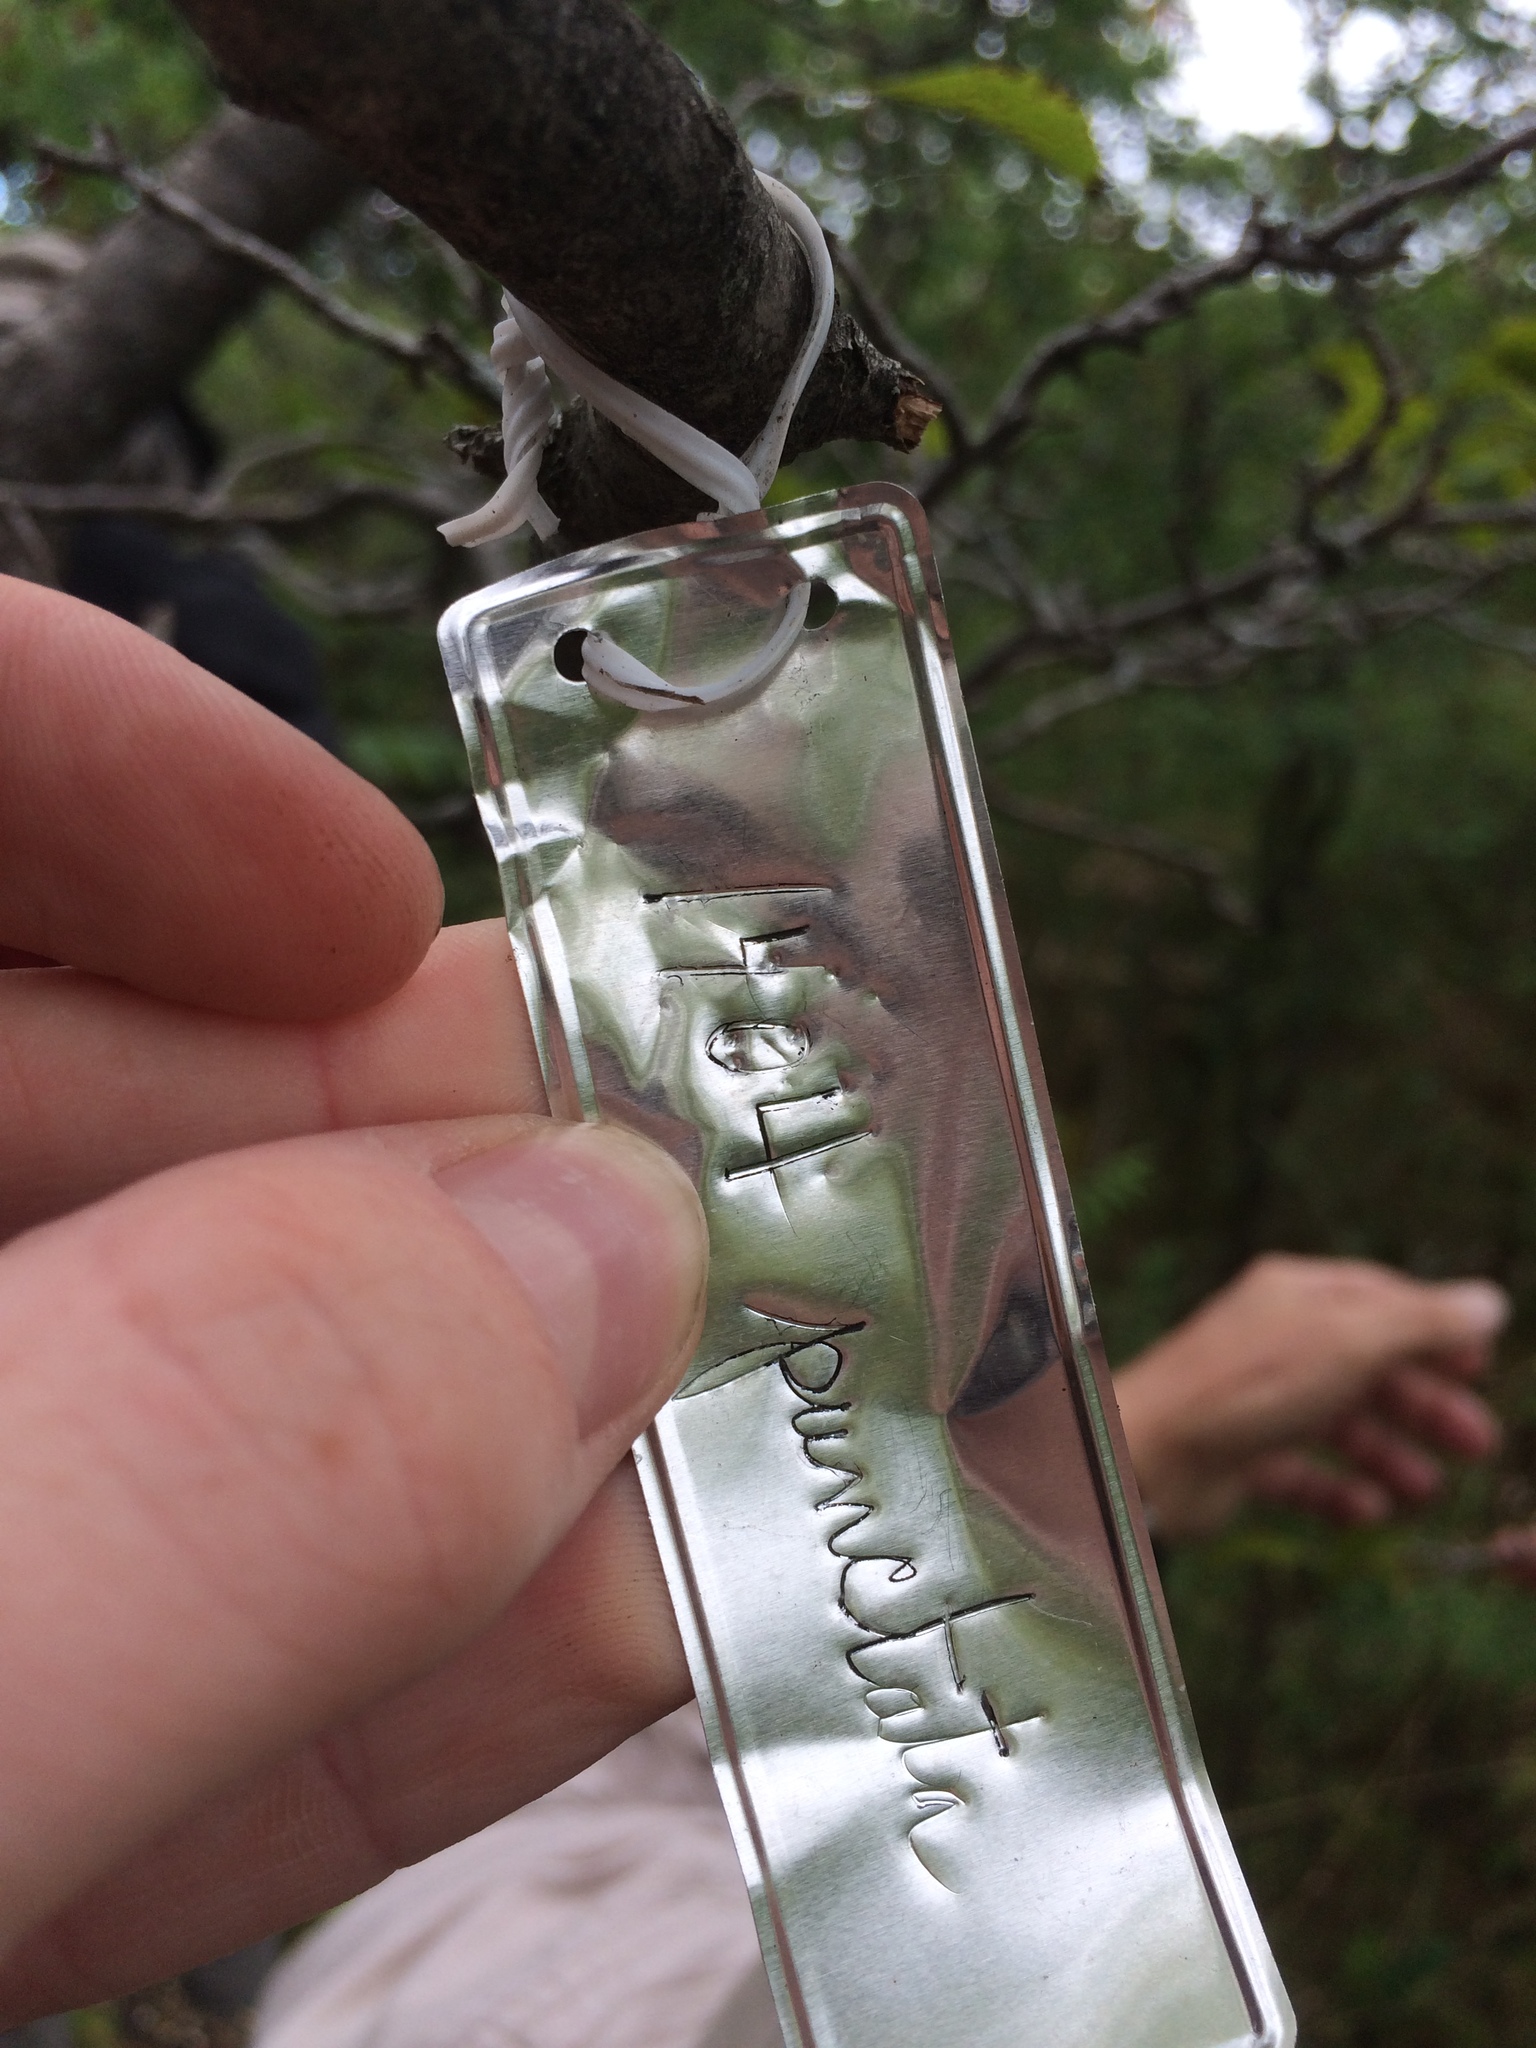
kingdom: Plantae
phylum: Tracheophyta
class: Magnoliopsida
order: Rosales
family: Rosaceae
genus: Crataegus
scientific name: Crataegus punctata
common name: Dotted hawthorn
